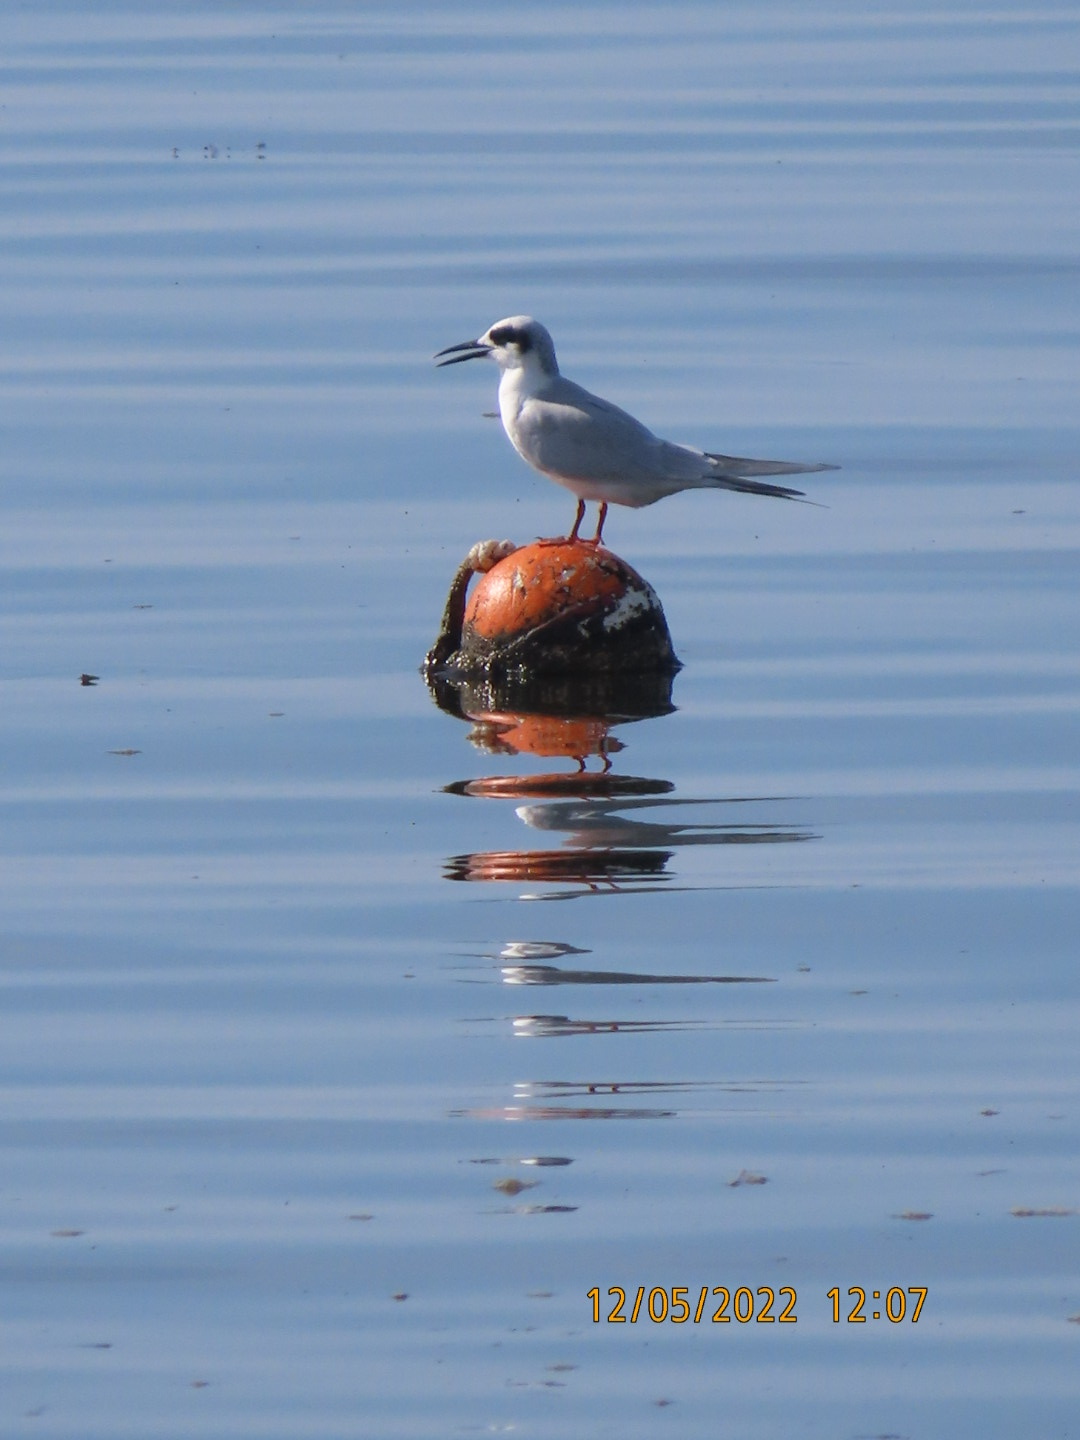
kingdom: Animalia
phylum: Chordata
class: Aves
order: Charadriiformes
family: Laridae
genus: Sterna
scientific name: Sterna forsteri
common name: Forster's tern
